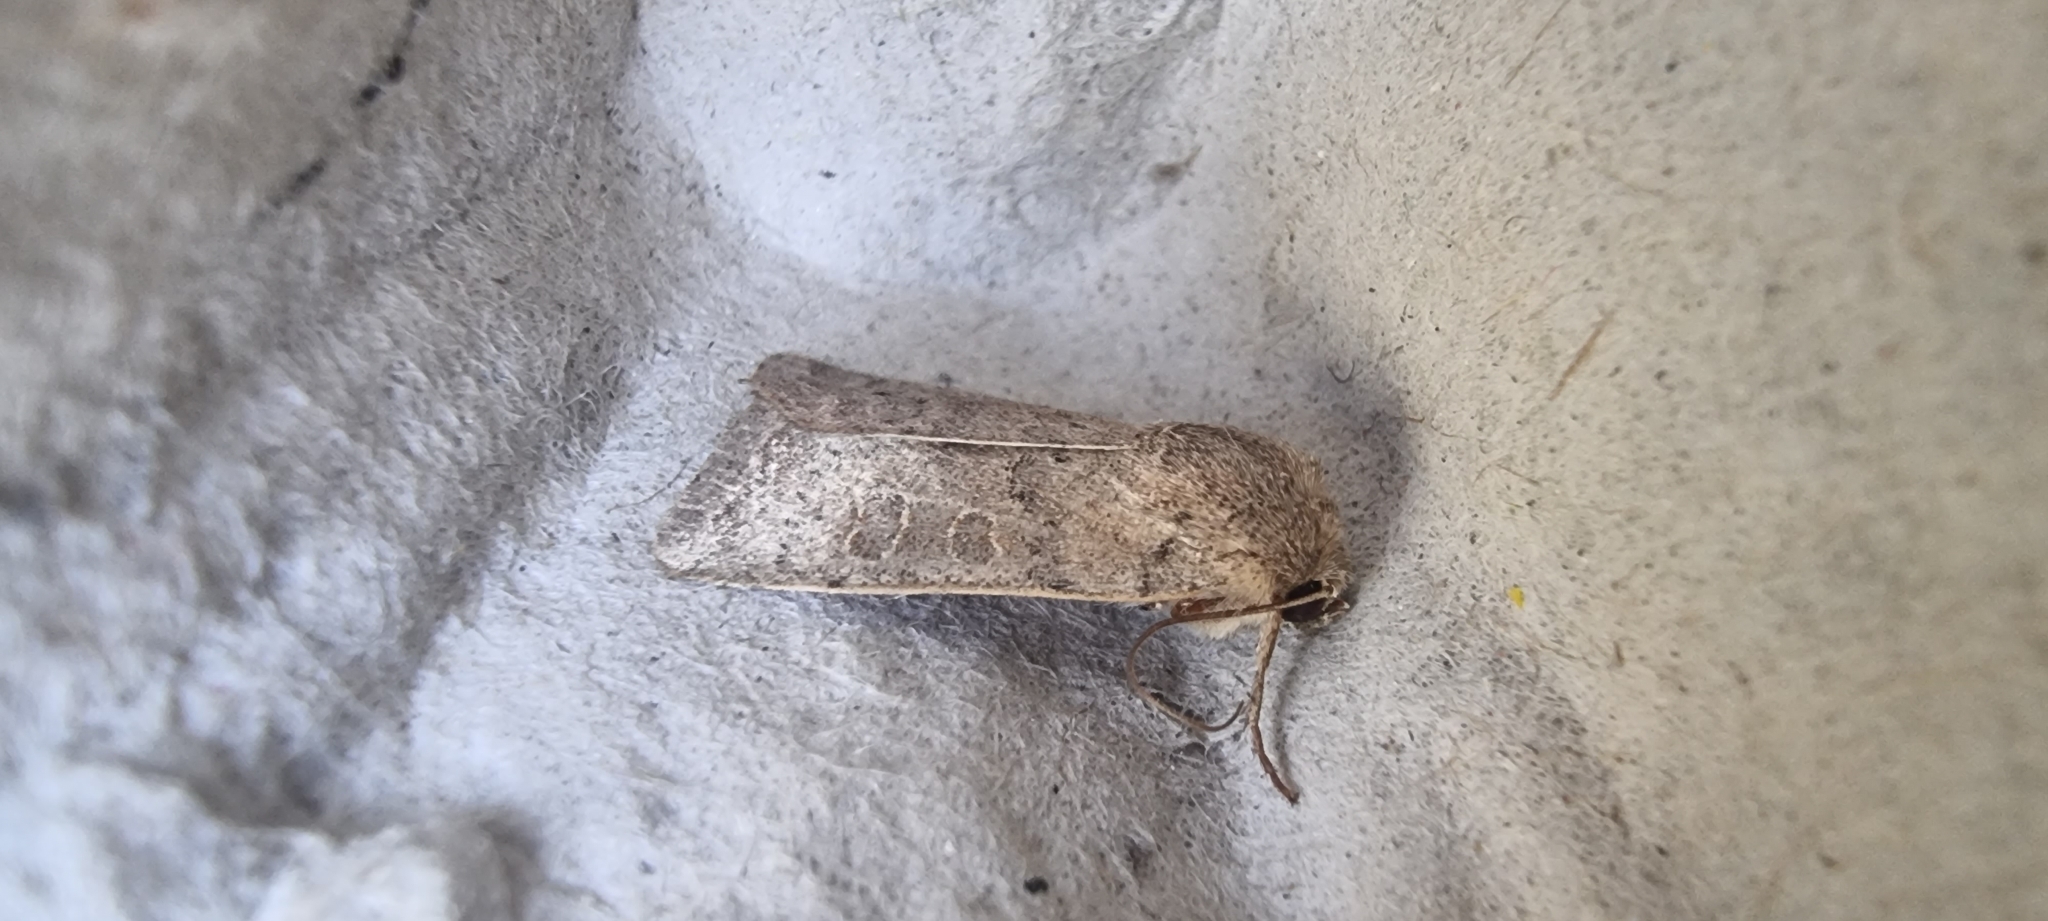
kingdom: Animalia
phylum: Arthropoda
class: Insecta
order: Lepidoptera
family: Noctuidae
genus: Hoplodrina
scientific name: Hoplodrina ambigua
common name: Vine's rustic
